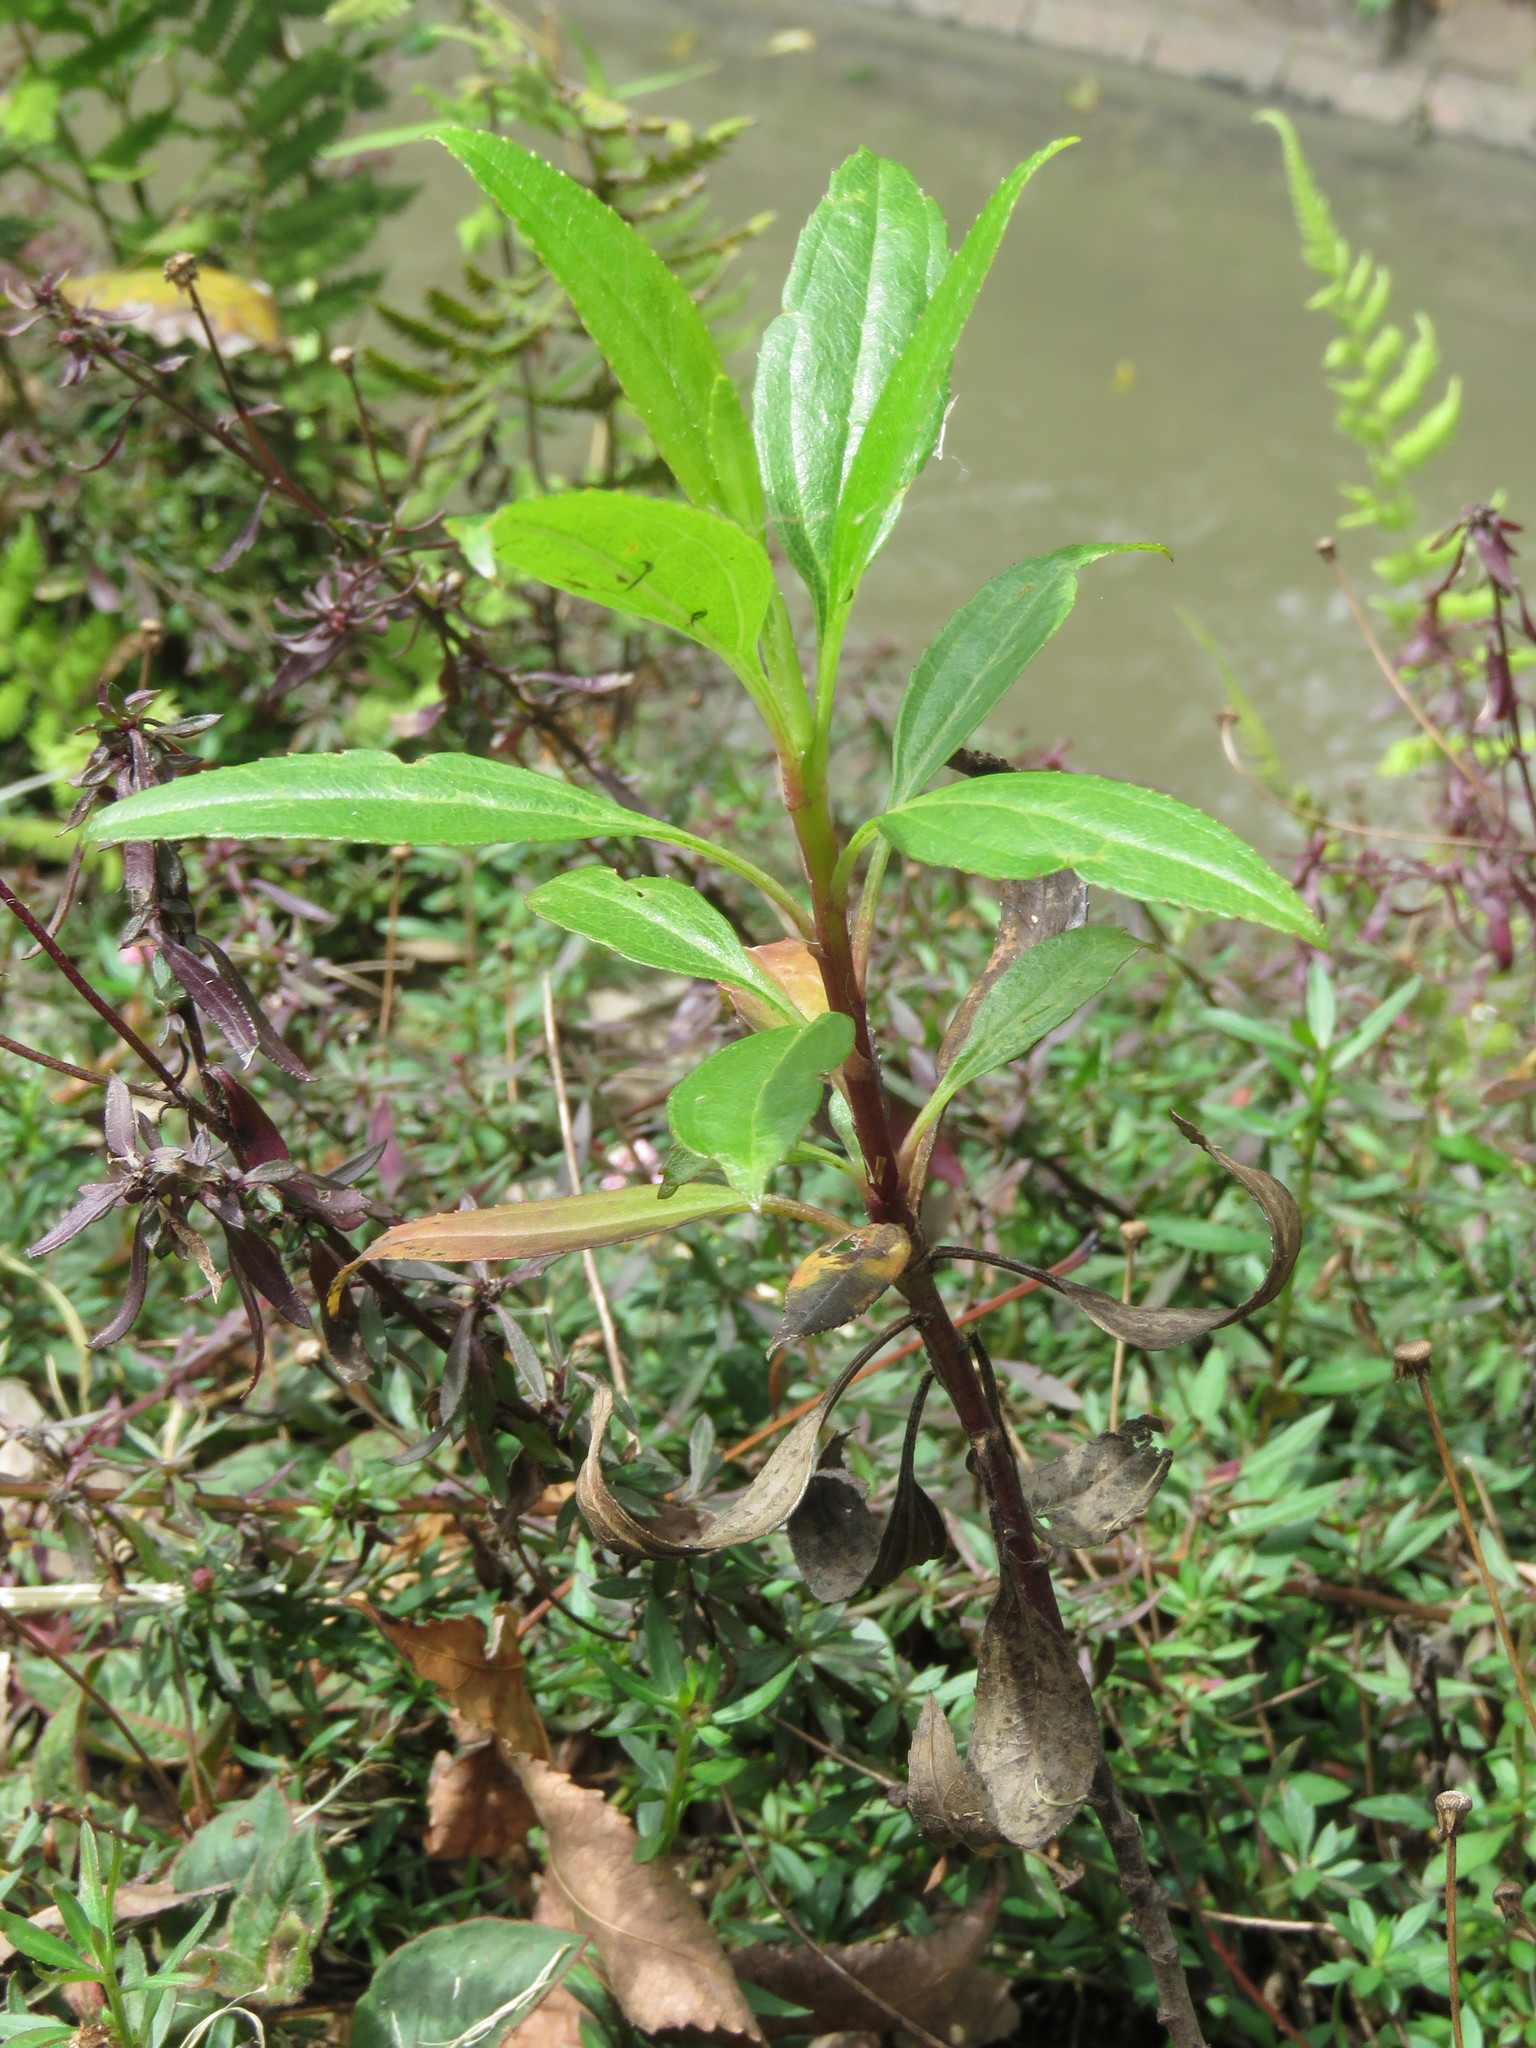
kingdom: Plantae
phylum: Tracheophyta
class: Magnoliopsida
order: Asterales
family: Asteraceae
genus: Baccharis
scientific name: Baccharis latifolia
